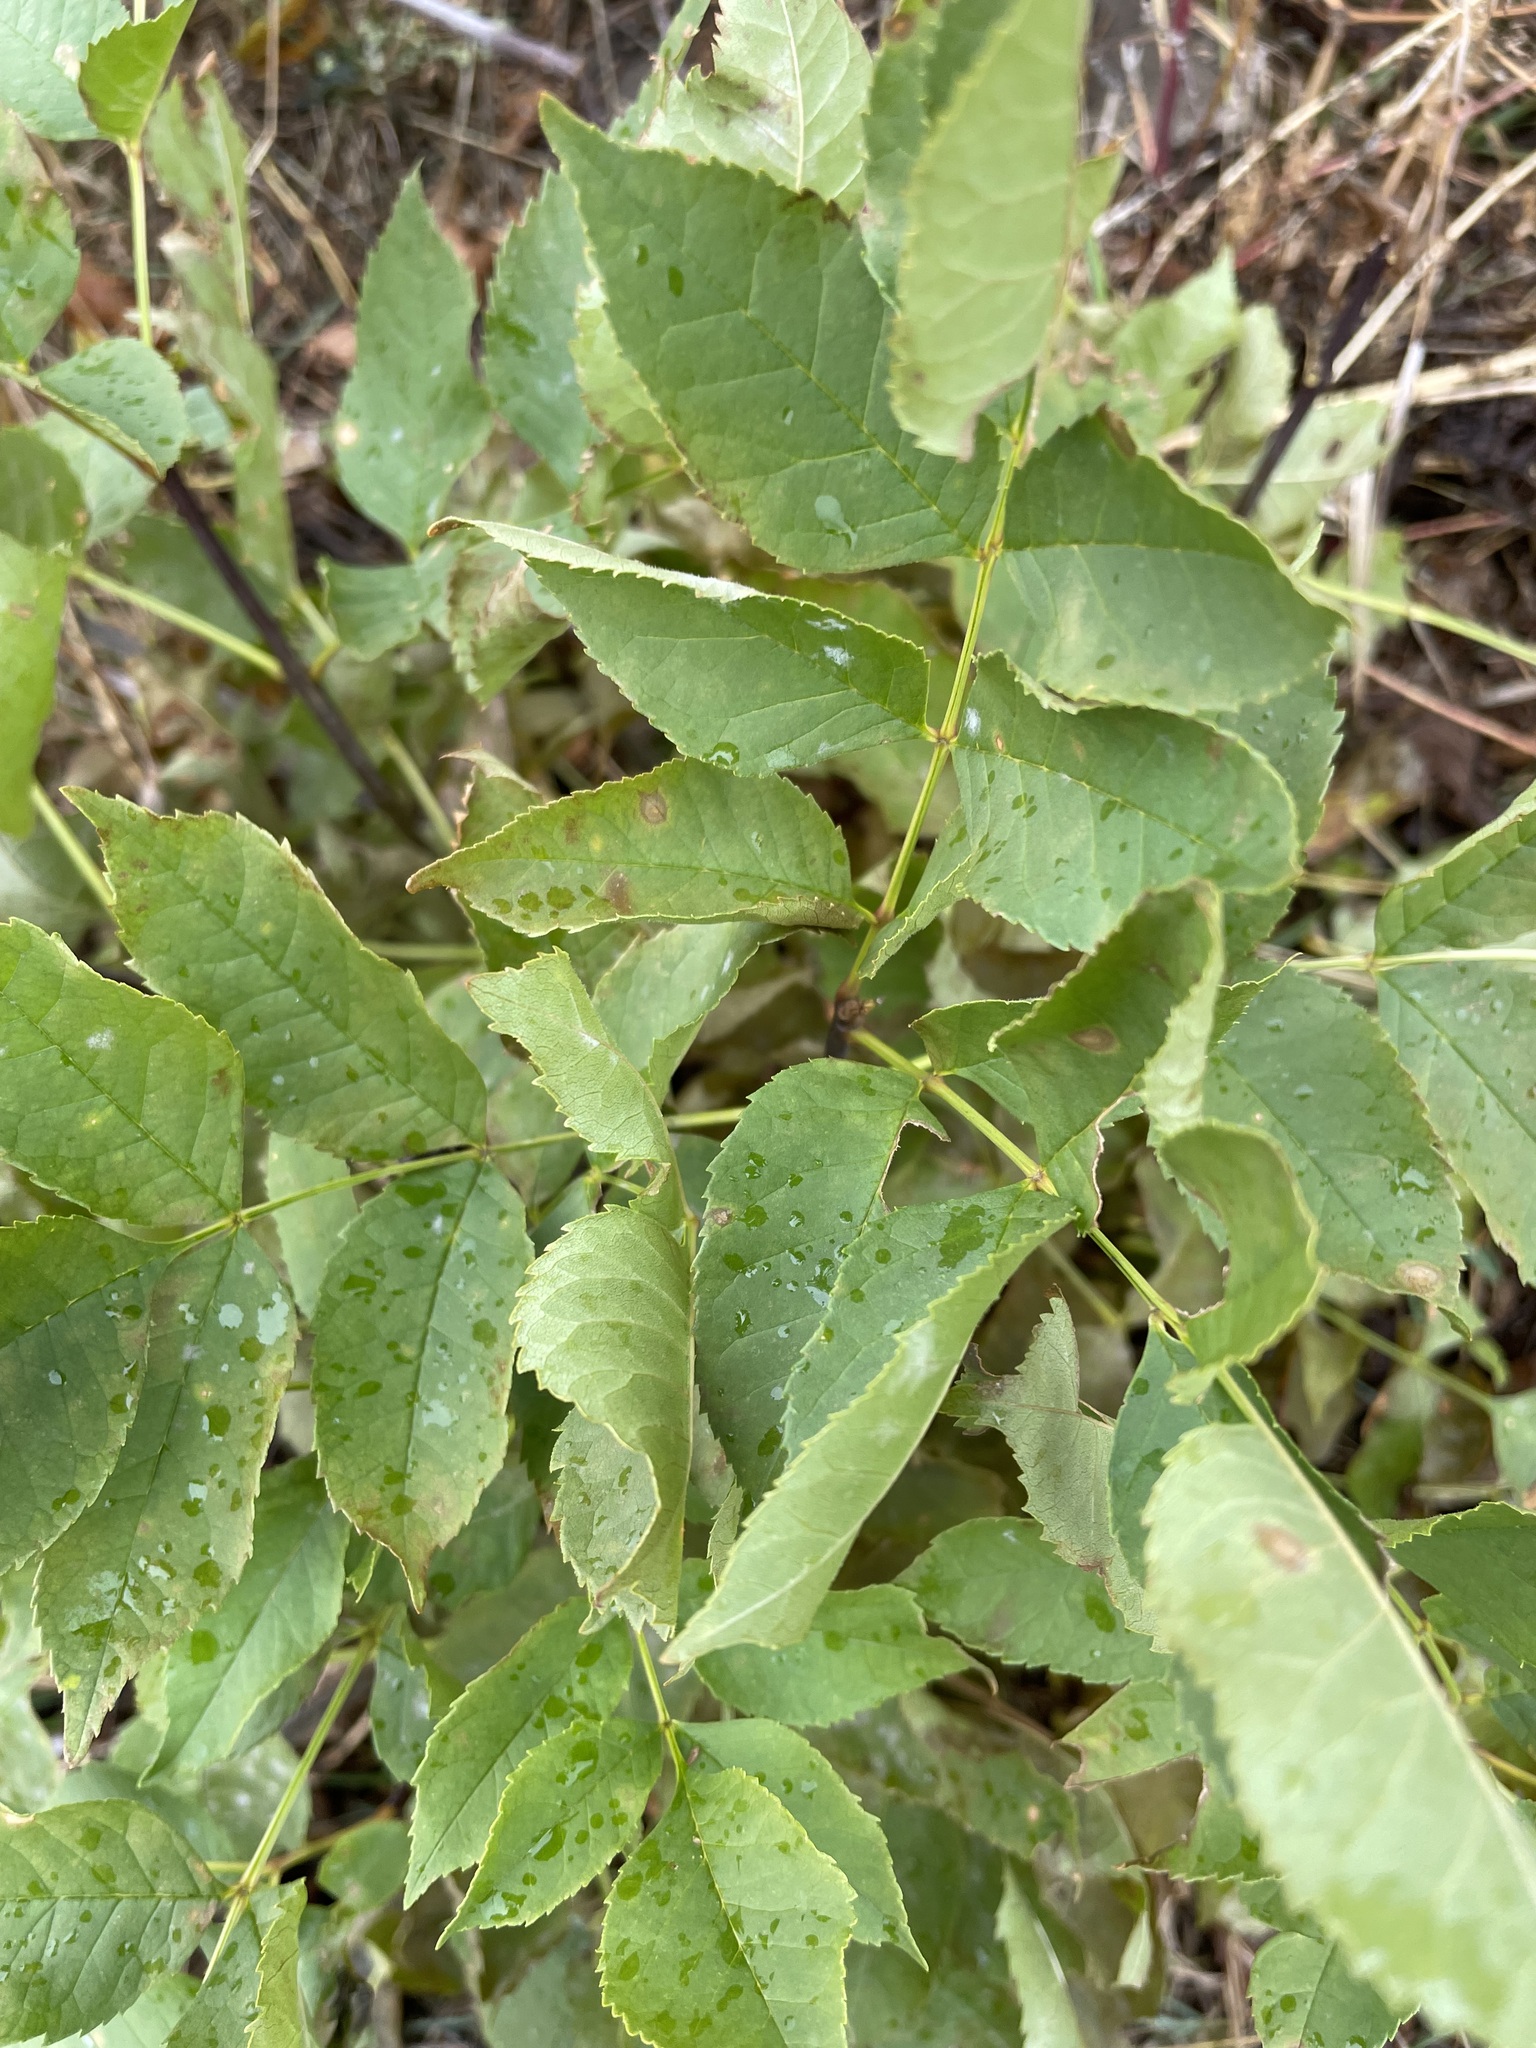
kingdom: Plantae
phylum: Tracheophyta
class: Magnoliopsida
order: Lamiales
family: Oleaceae
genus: Fraxinus
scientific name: Fraxinus pennsylvanica
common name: Green ash
